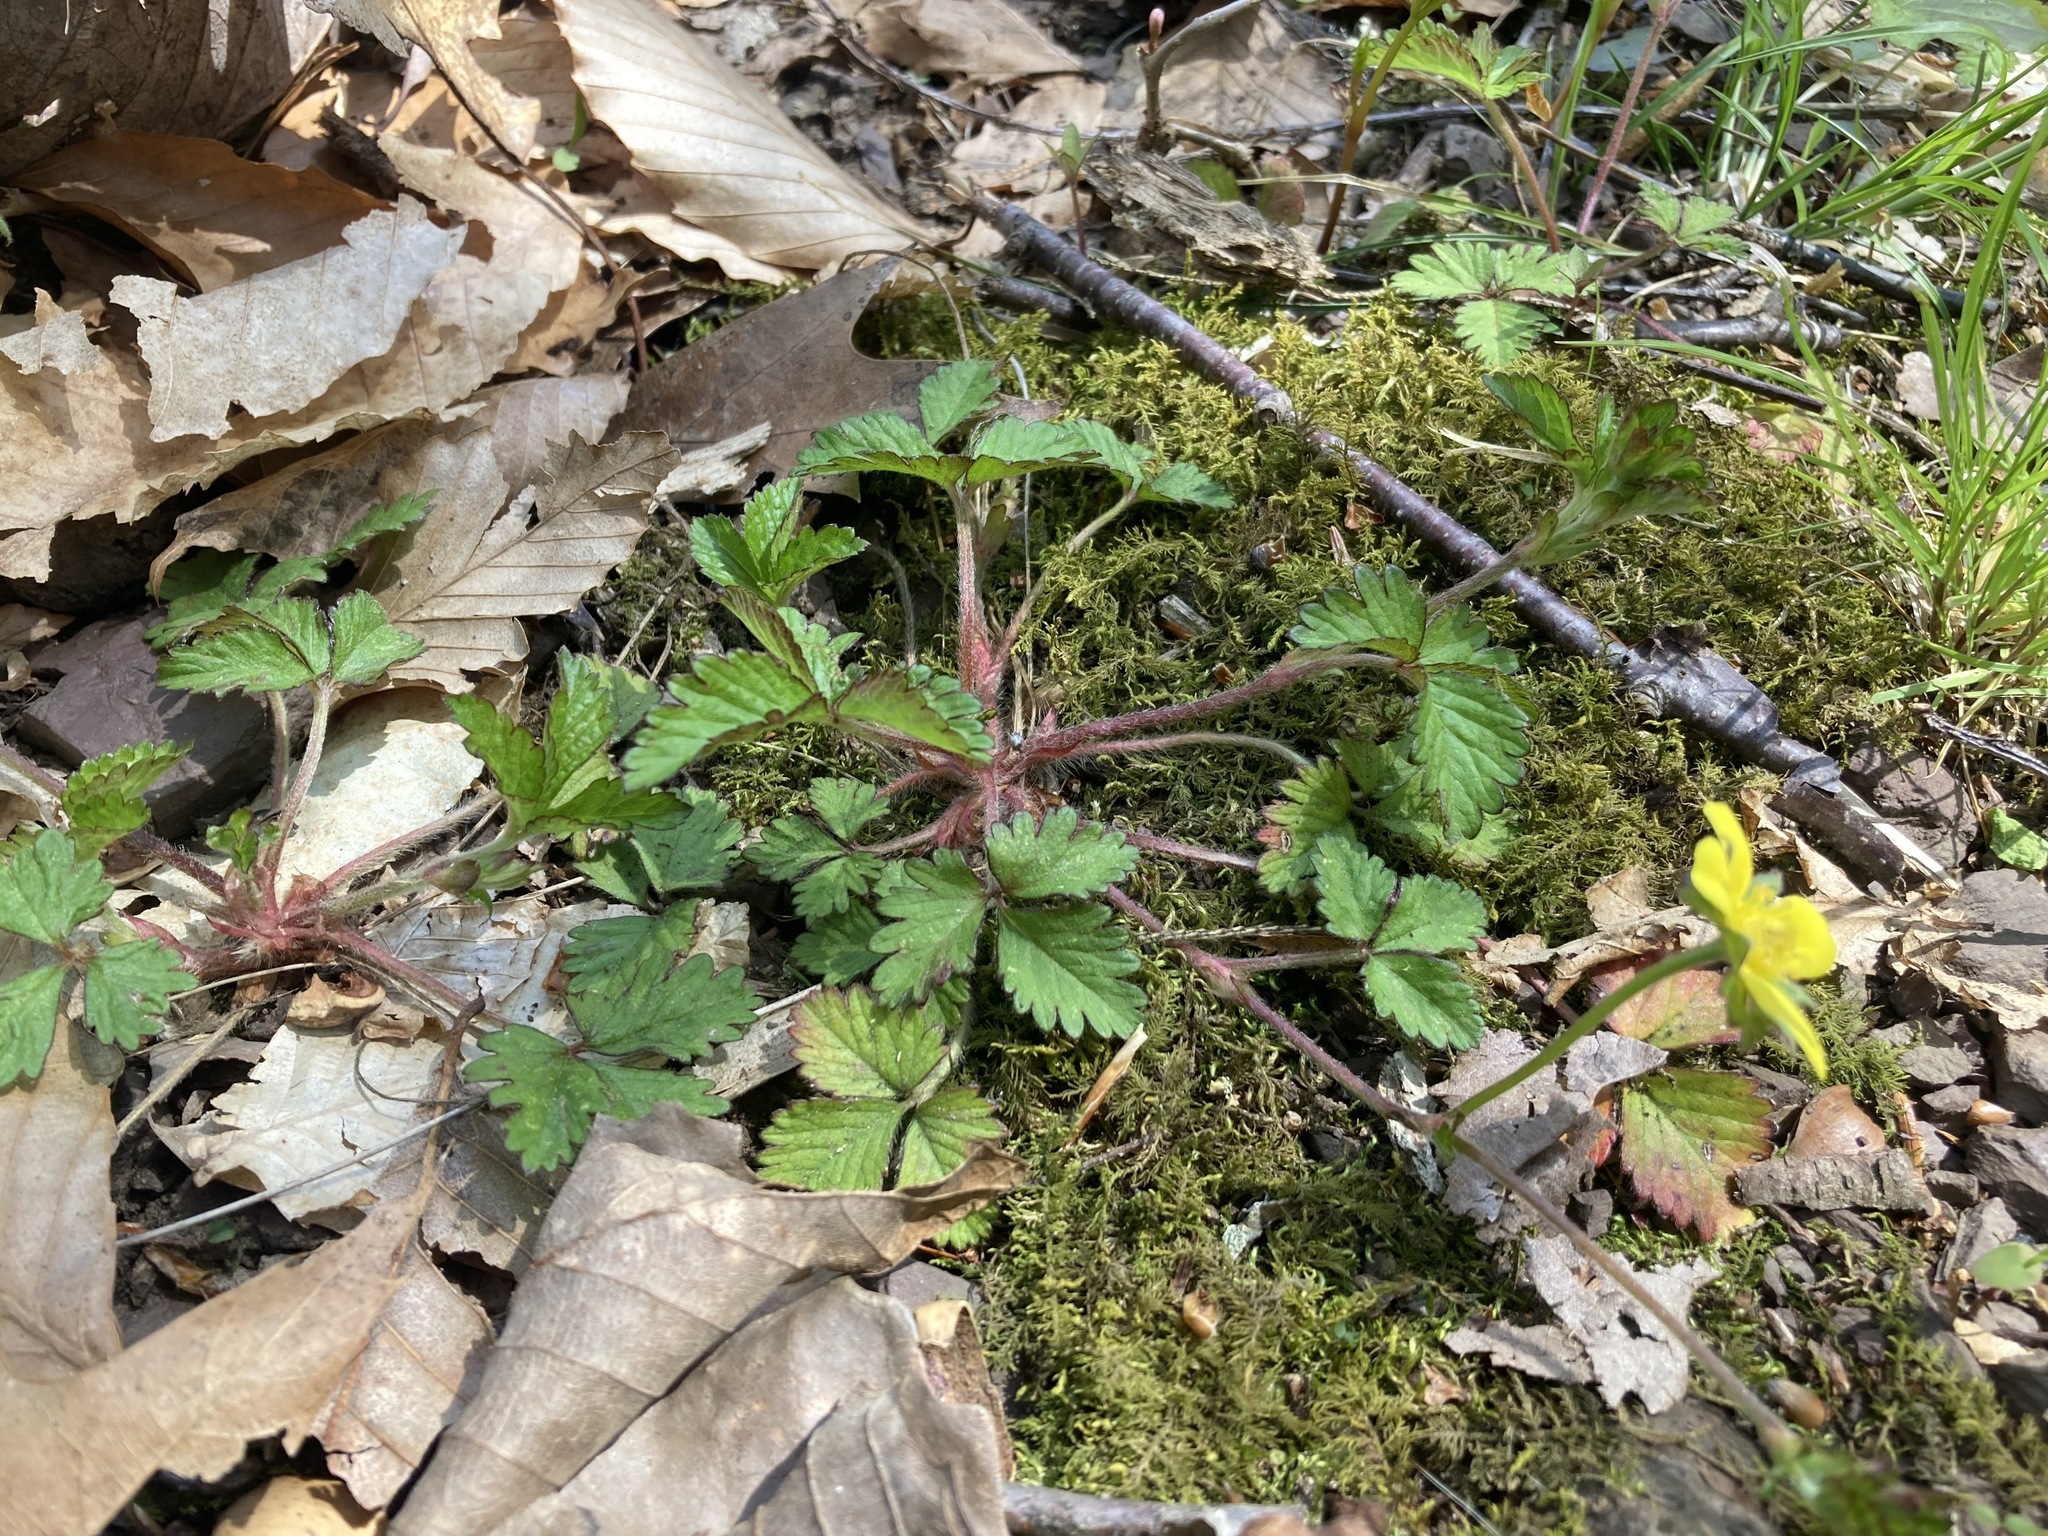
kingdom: Plantae
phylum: Tracheophyta
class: Magnoliopsida
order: Rosales
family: Rosaceae
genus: Potentilla
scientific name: Potentilla indica
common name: Yellow-flowered strawberry
